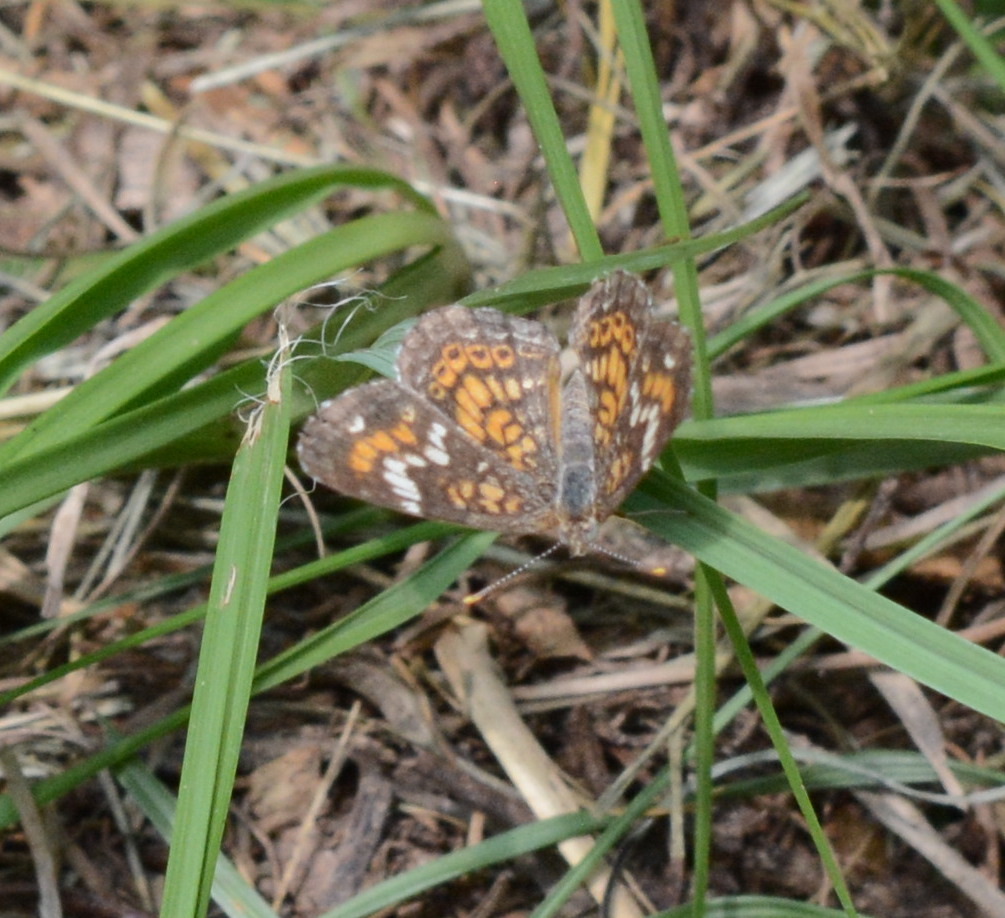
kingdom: Animalia
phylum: Arthropoda
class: Insecta
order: Lepidoptera
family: Nymphalidae
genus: Phyciodes
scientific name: Phyciodes phaon
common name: Phaon crescent
